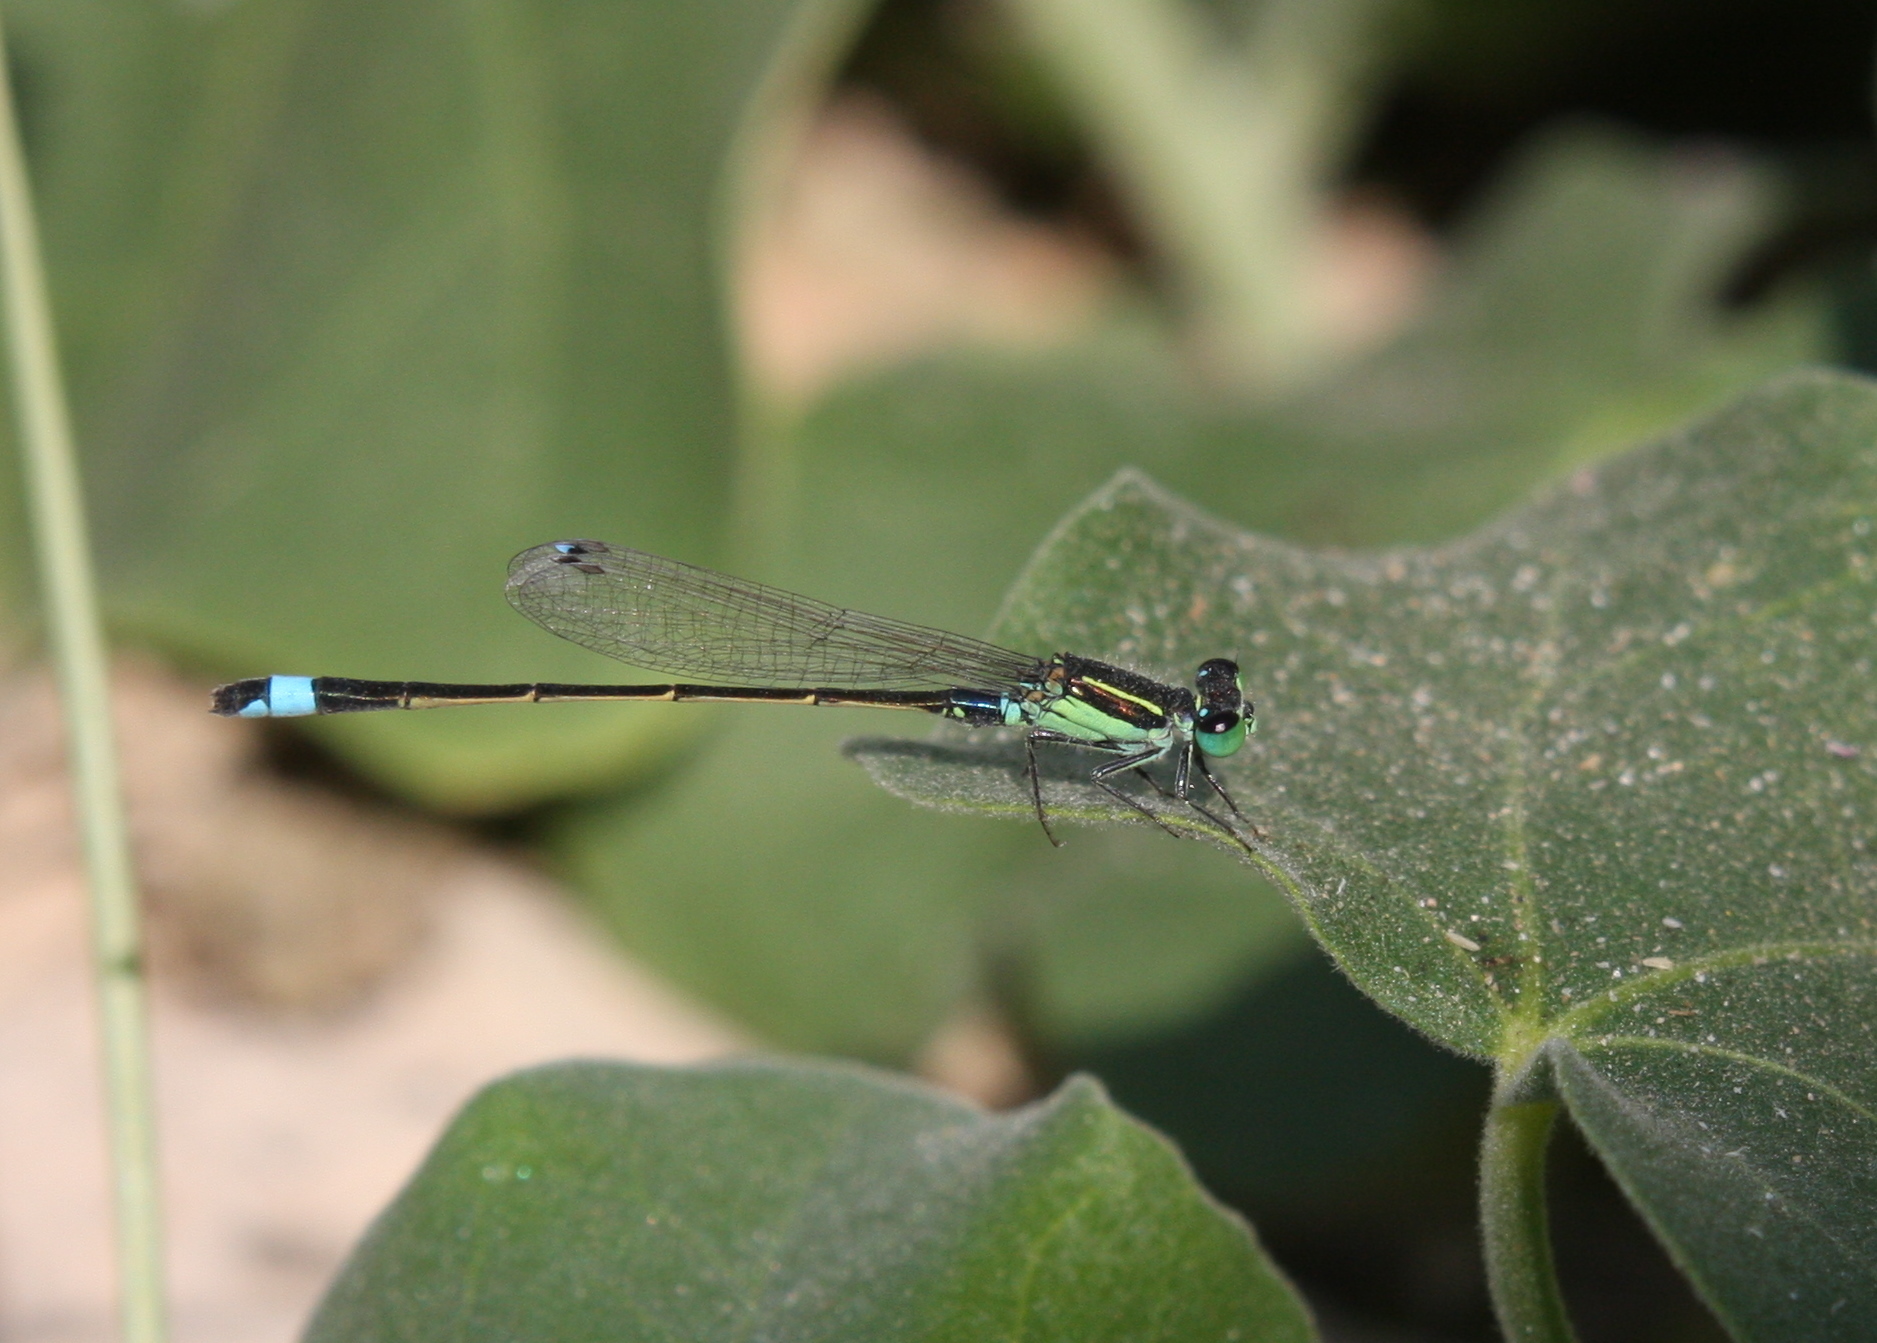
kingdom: Animalia
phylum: Arthropoda
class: Insecta
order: Odonata
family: Coenagrionidae
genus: Ischnura
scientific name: Ischnura senegalensis
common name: Tropical bluetail
